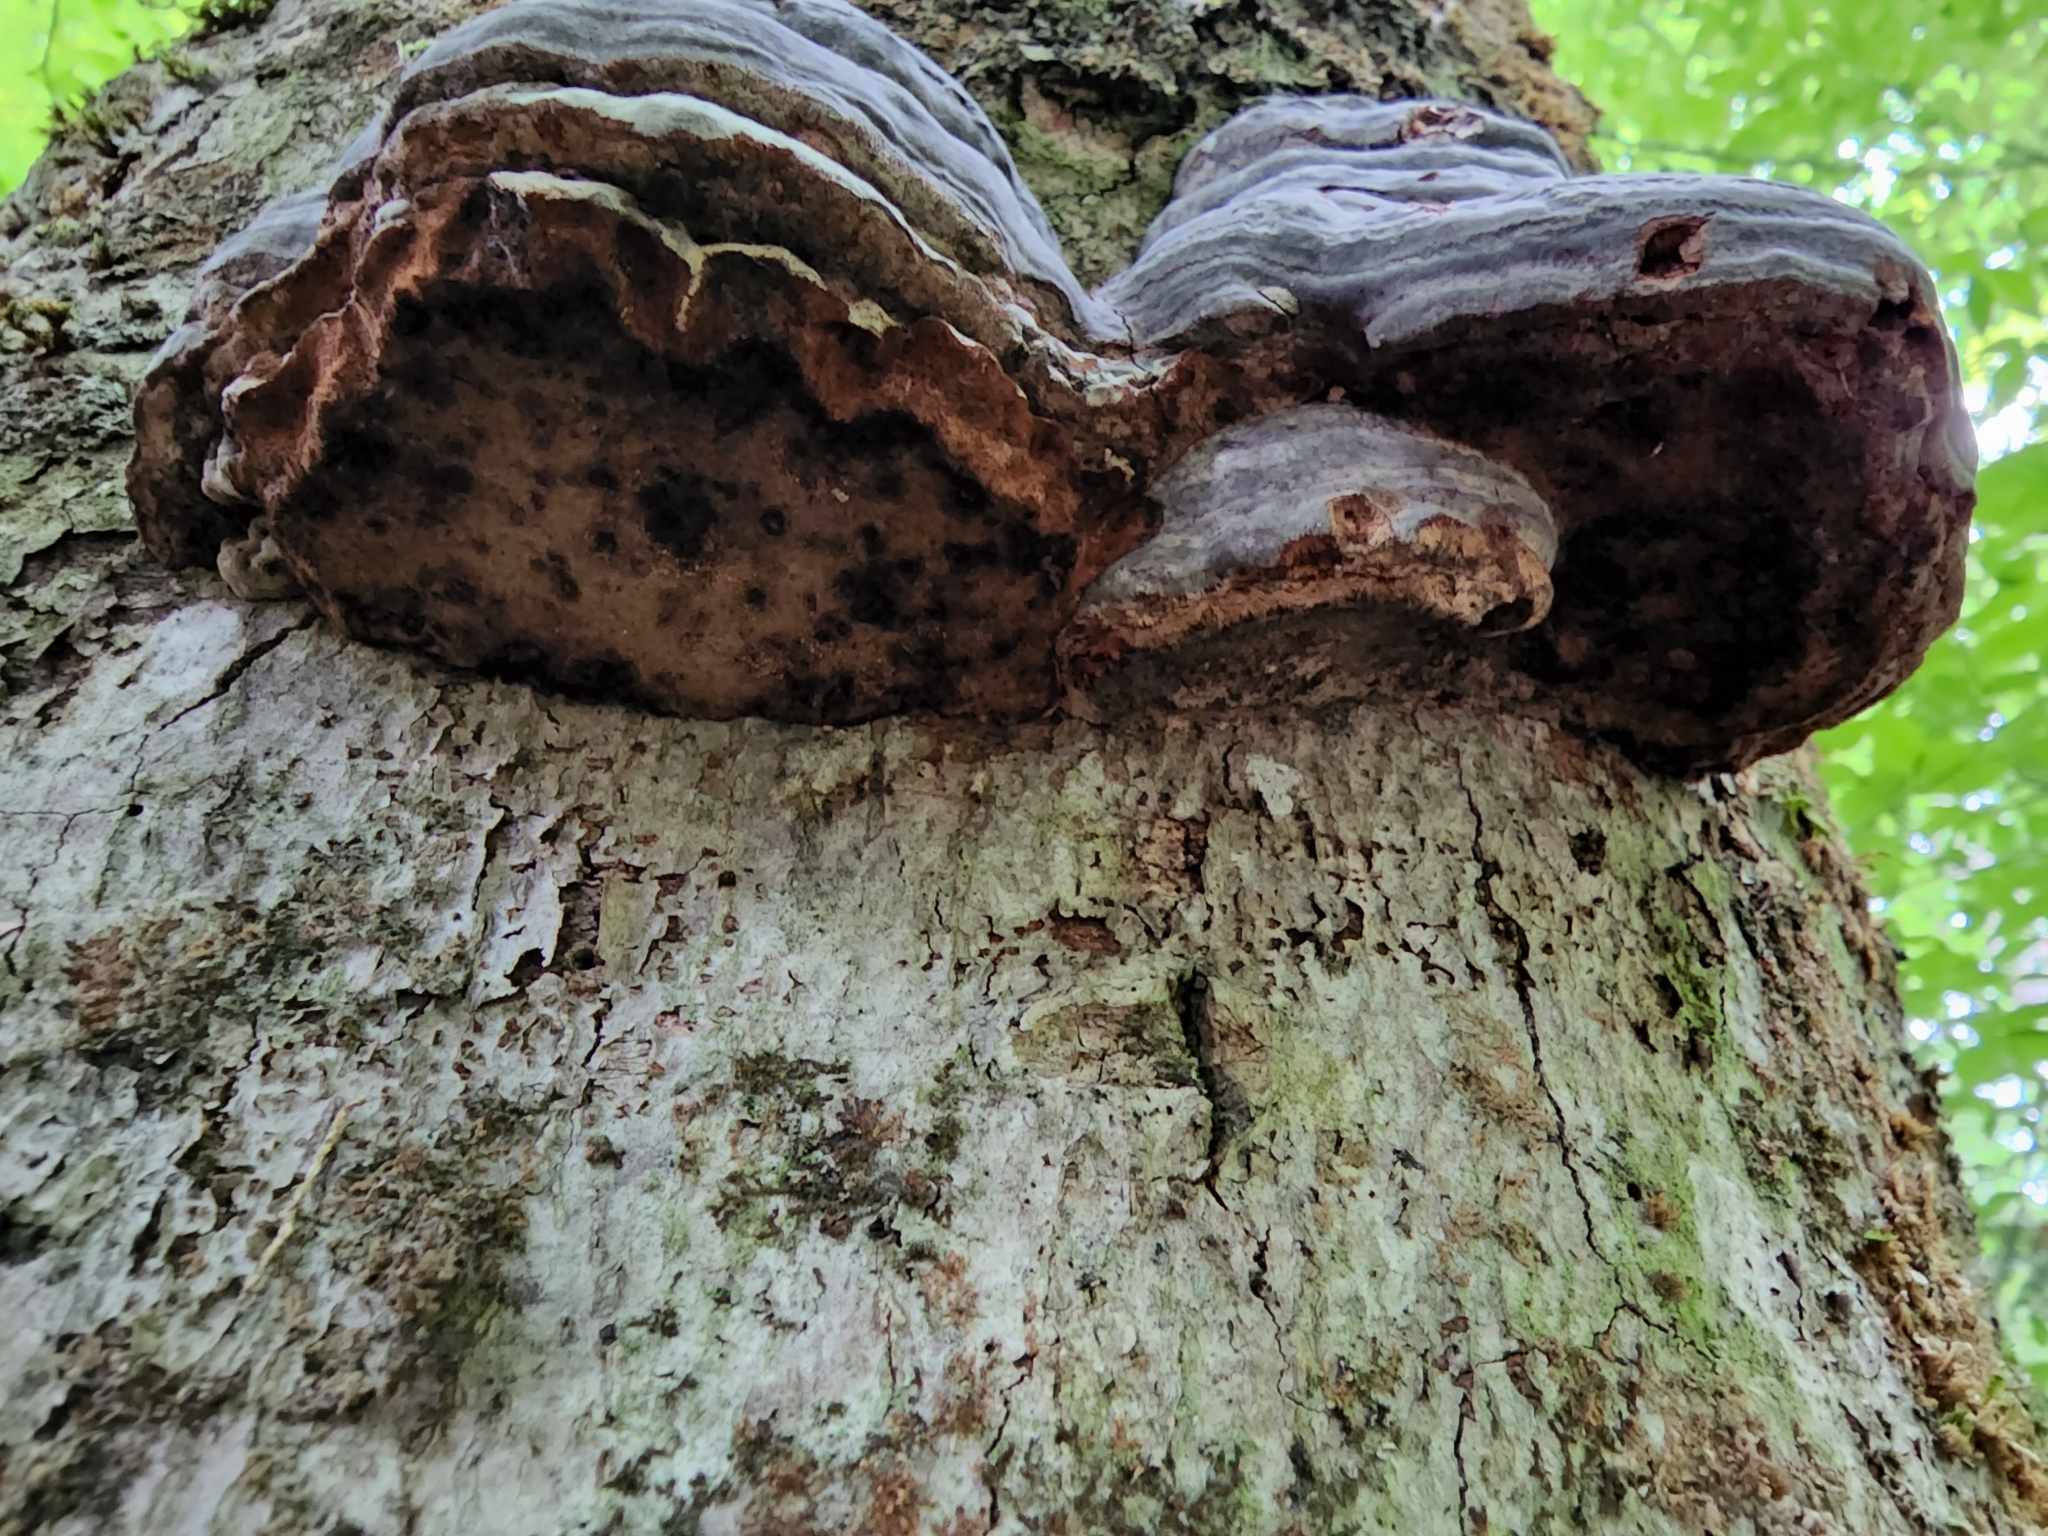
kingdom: Fungi
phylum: Basidiomycota
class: Agaricomycetes
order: Polyporales
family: Polyporaceae
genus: Fomes
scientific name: Fomes fomentarius
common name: Hoof fungus
